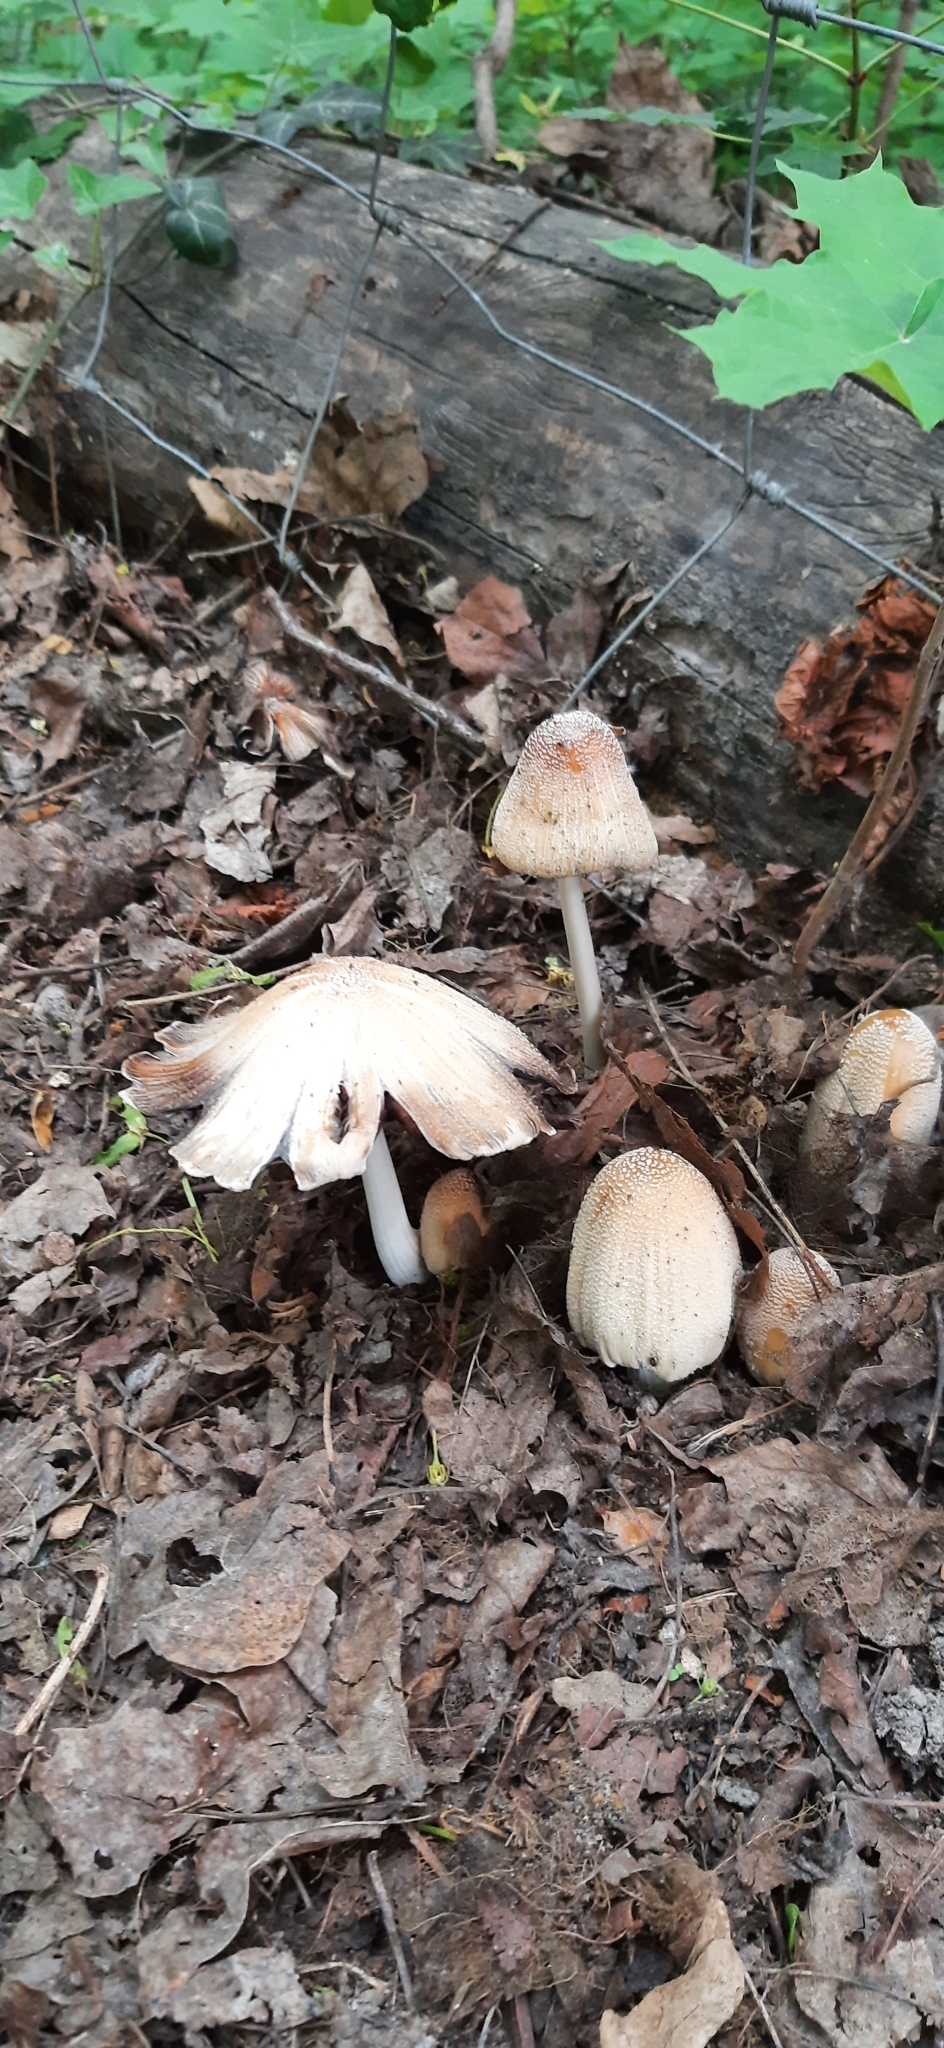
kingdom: Fungi
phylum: Basidiomycota
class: Agaricomycetes
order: Agaricales
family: Psathyrellaceae
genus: Coprinellus
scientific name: Coprinellus
